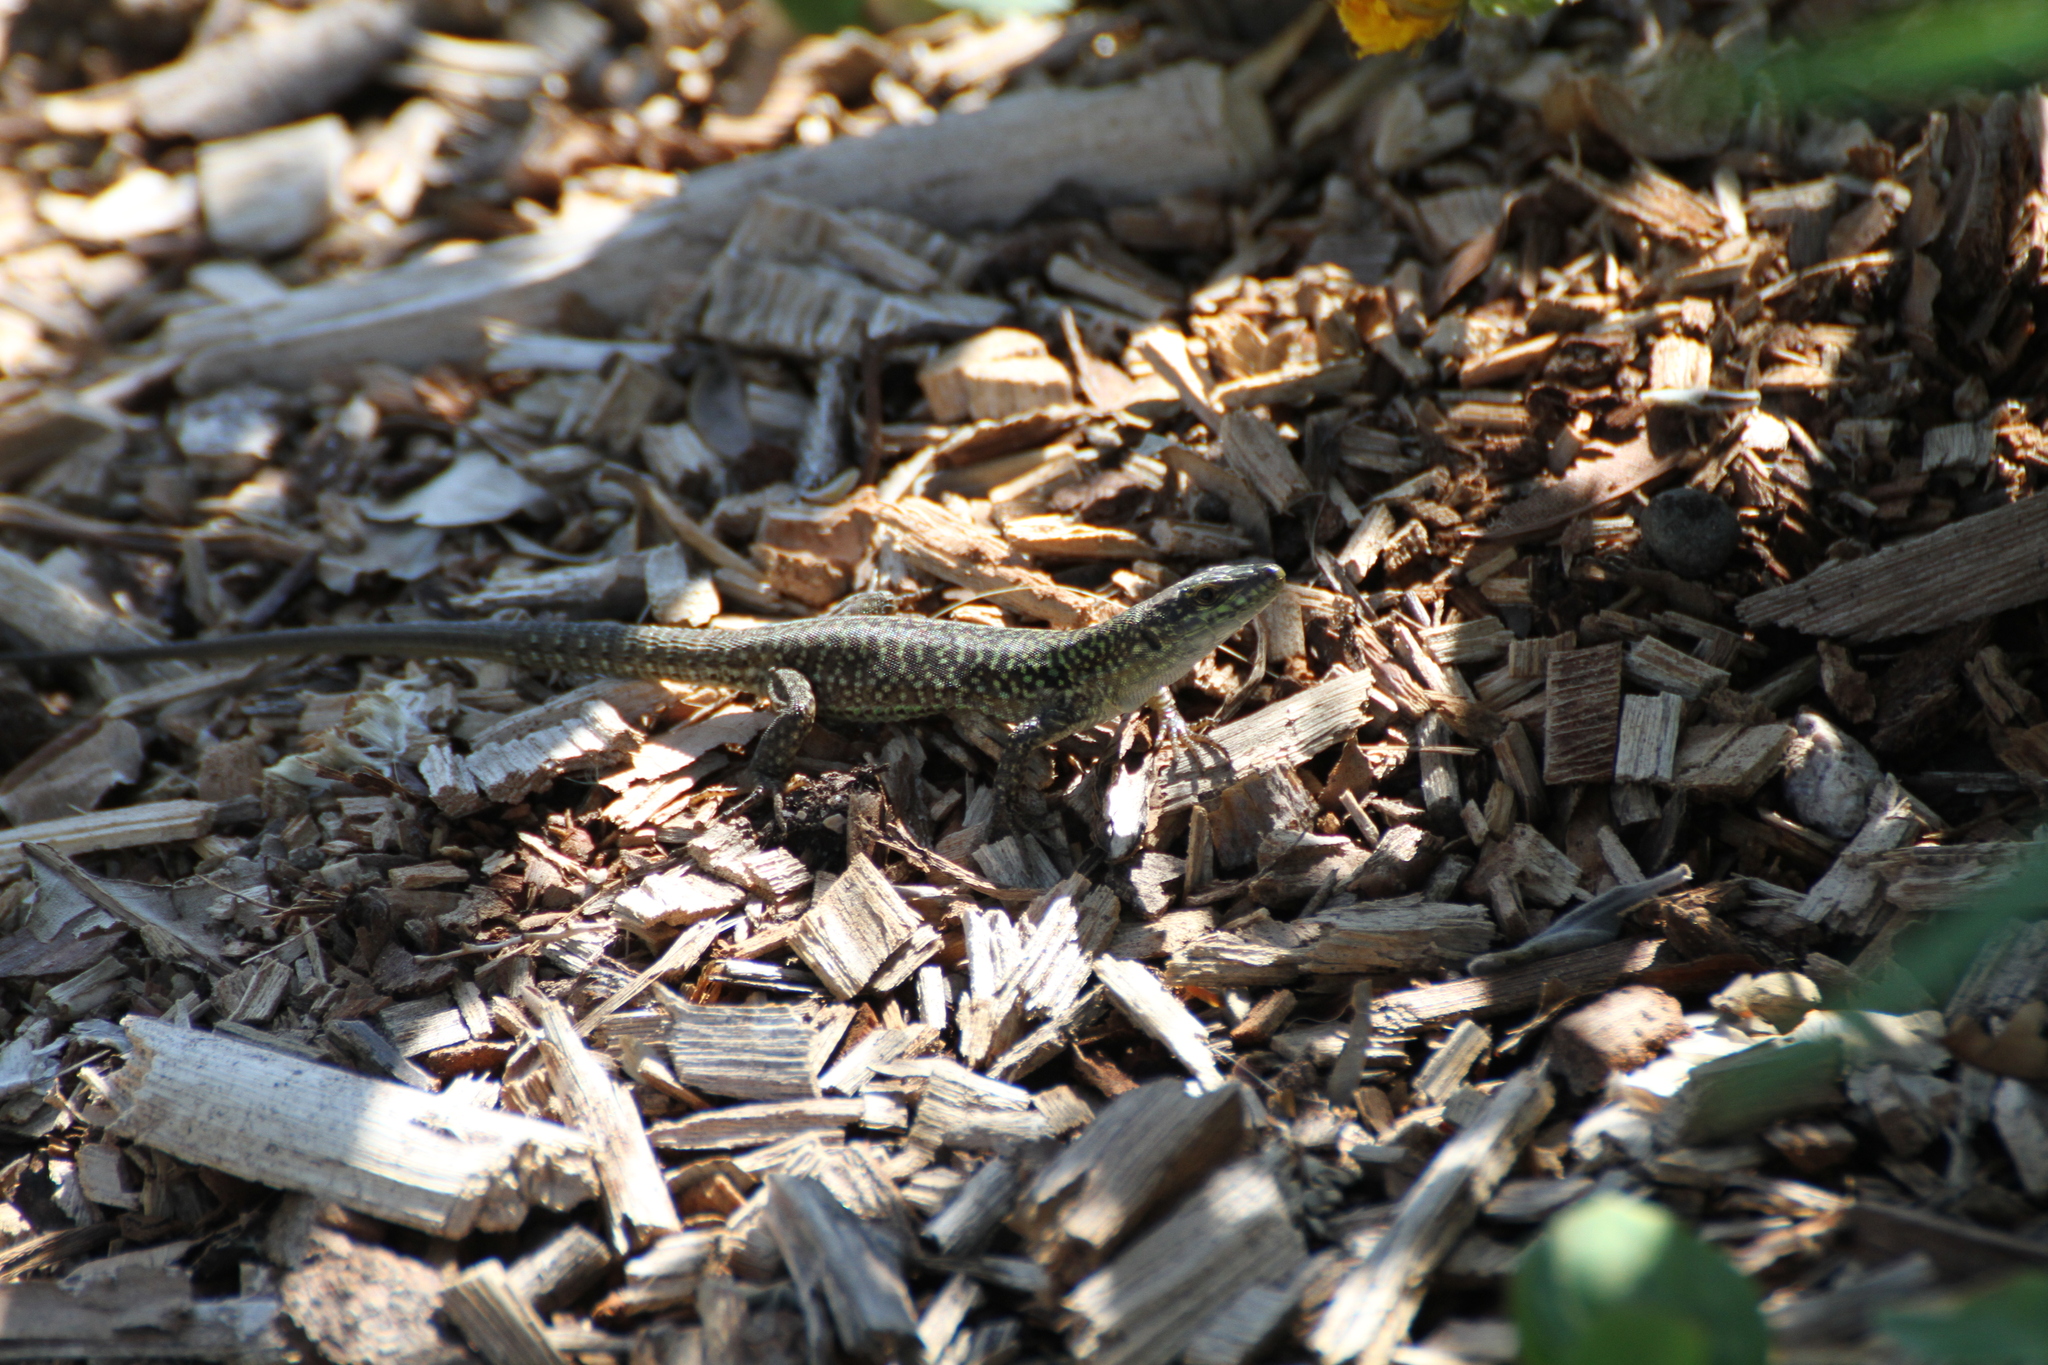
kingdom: Animalia
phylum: Chordata
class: Squamata
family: Lacertidae
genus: Podarcis
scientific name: Podarcis siculus
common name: Italian wall lizard
